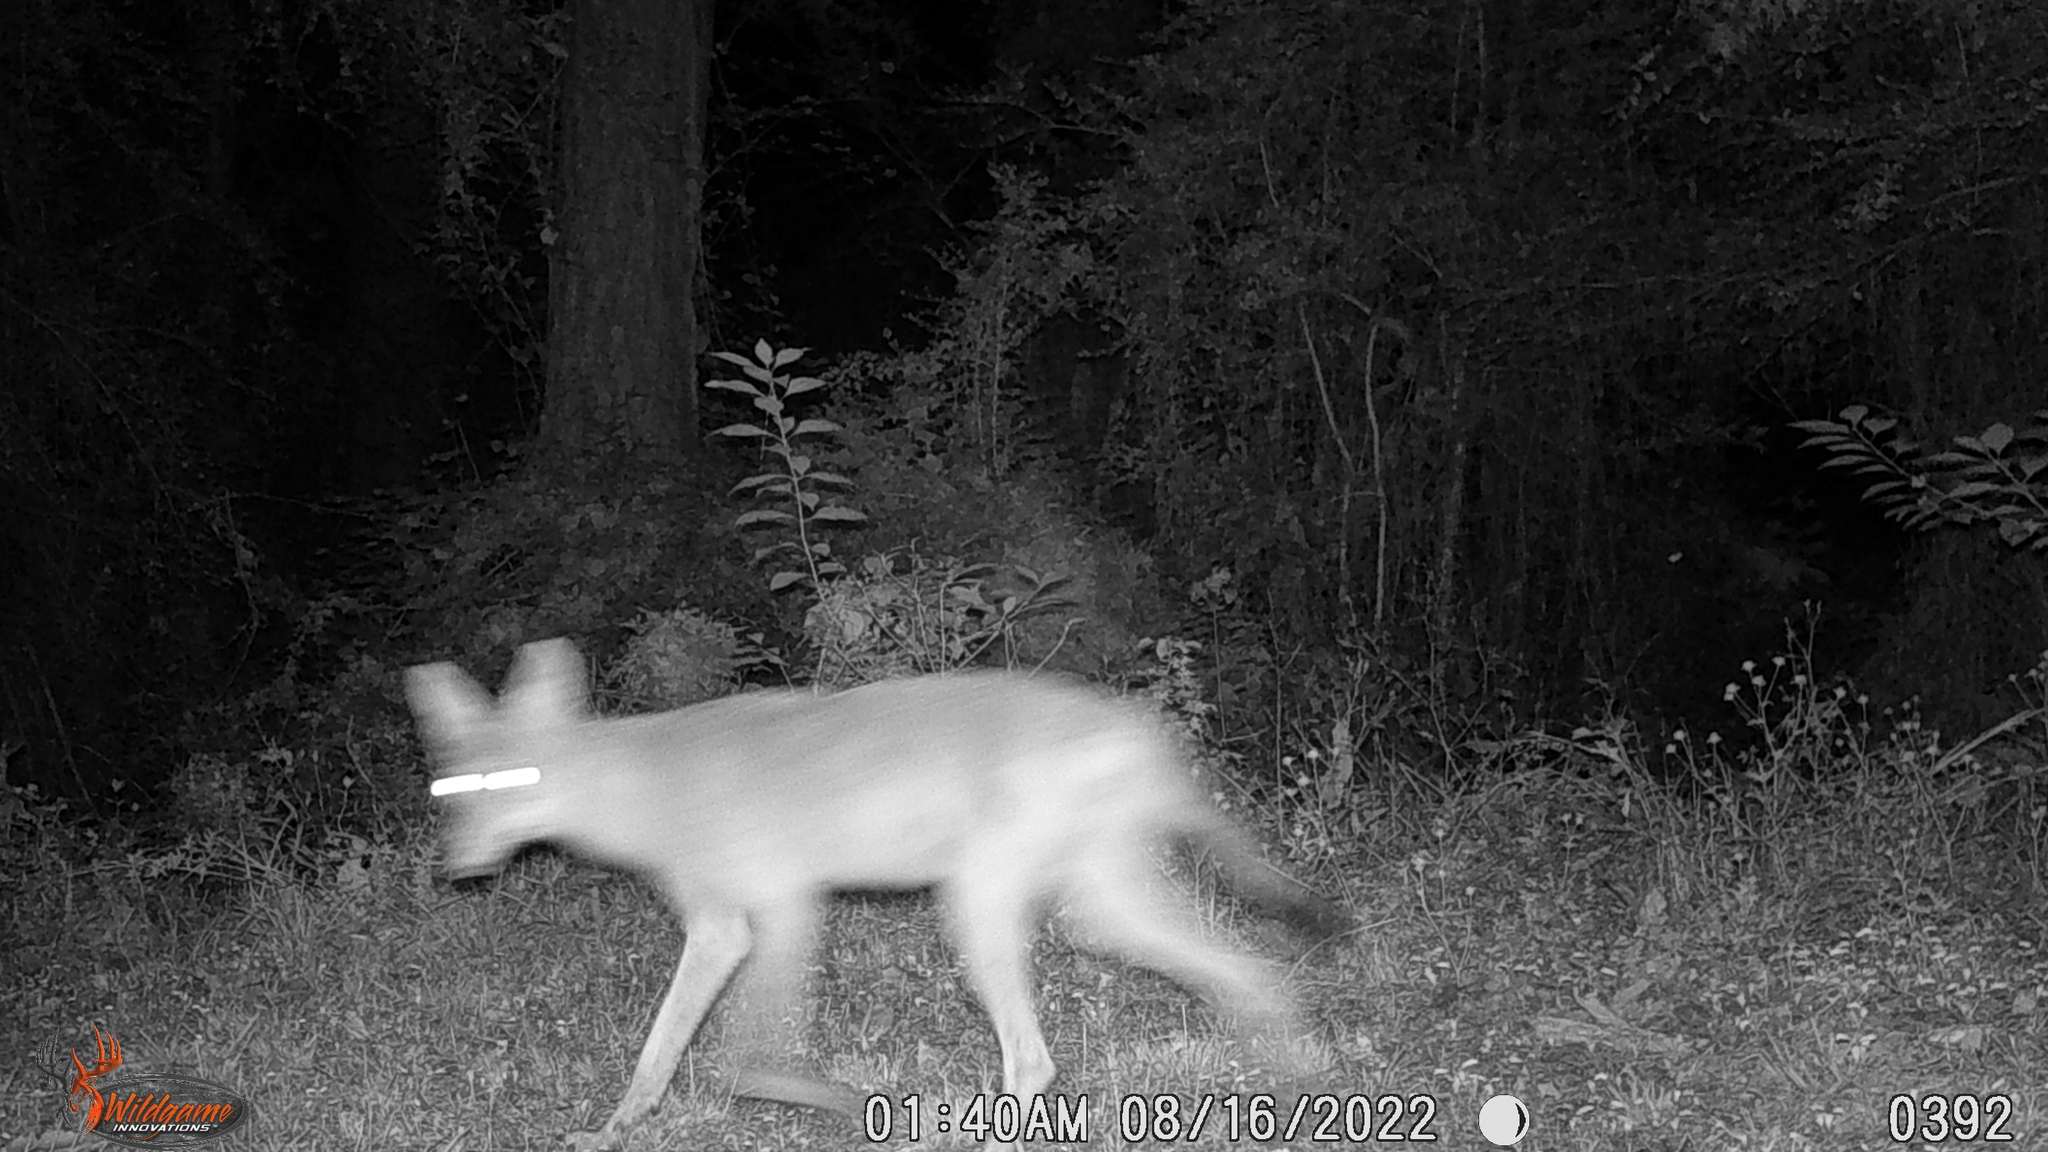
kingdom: Animalia
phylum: Chordata
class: Mammalia
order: Carnivora
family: Canidae
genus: Canis
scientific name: Canis latrans
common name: Coyote
